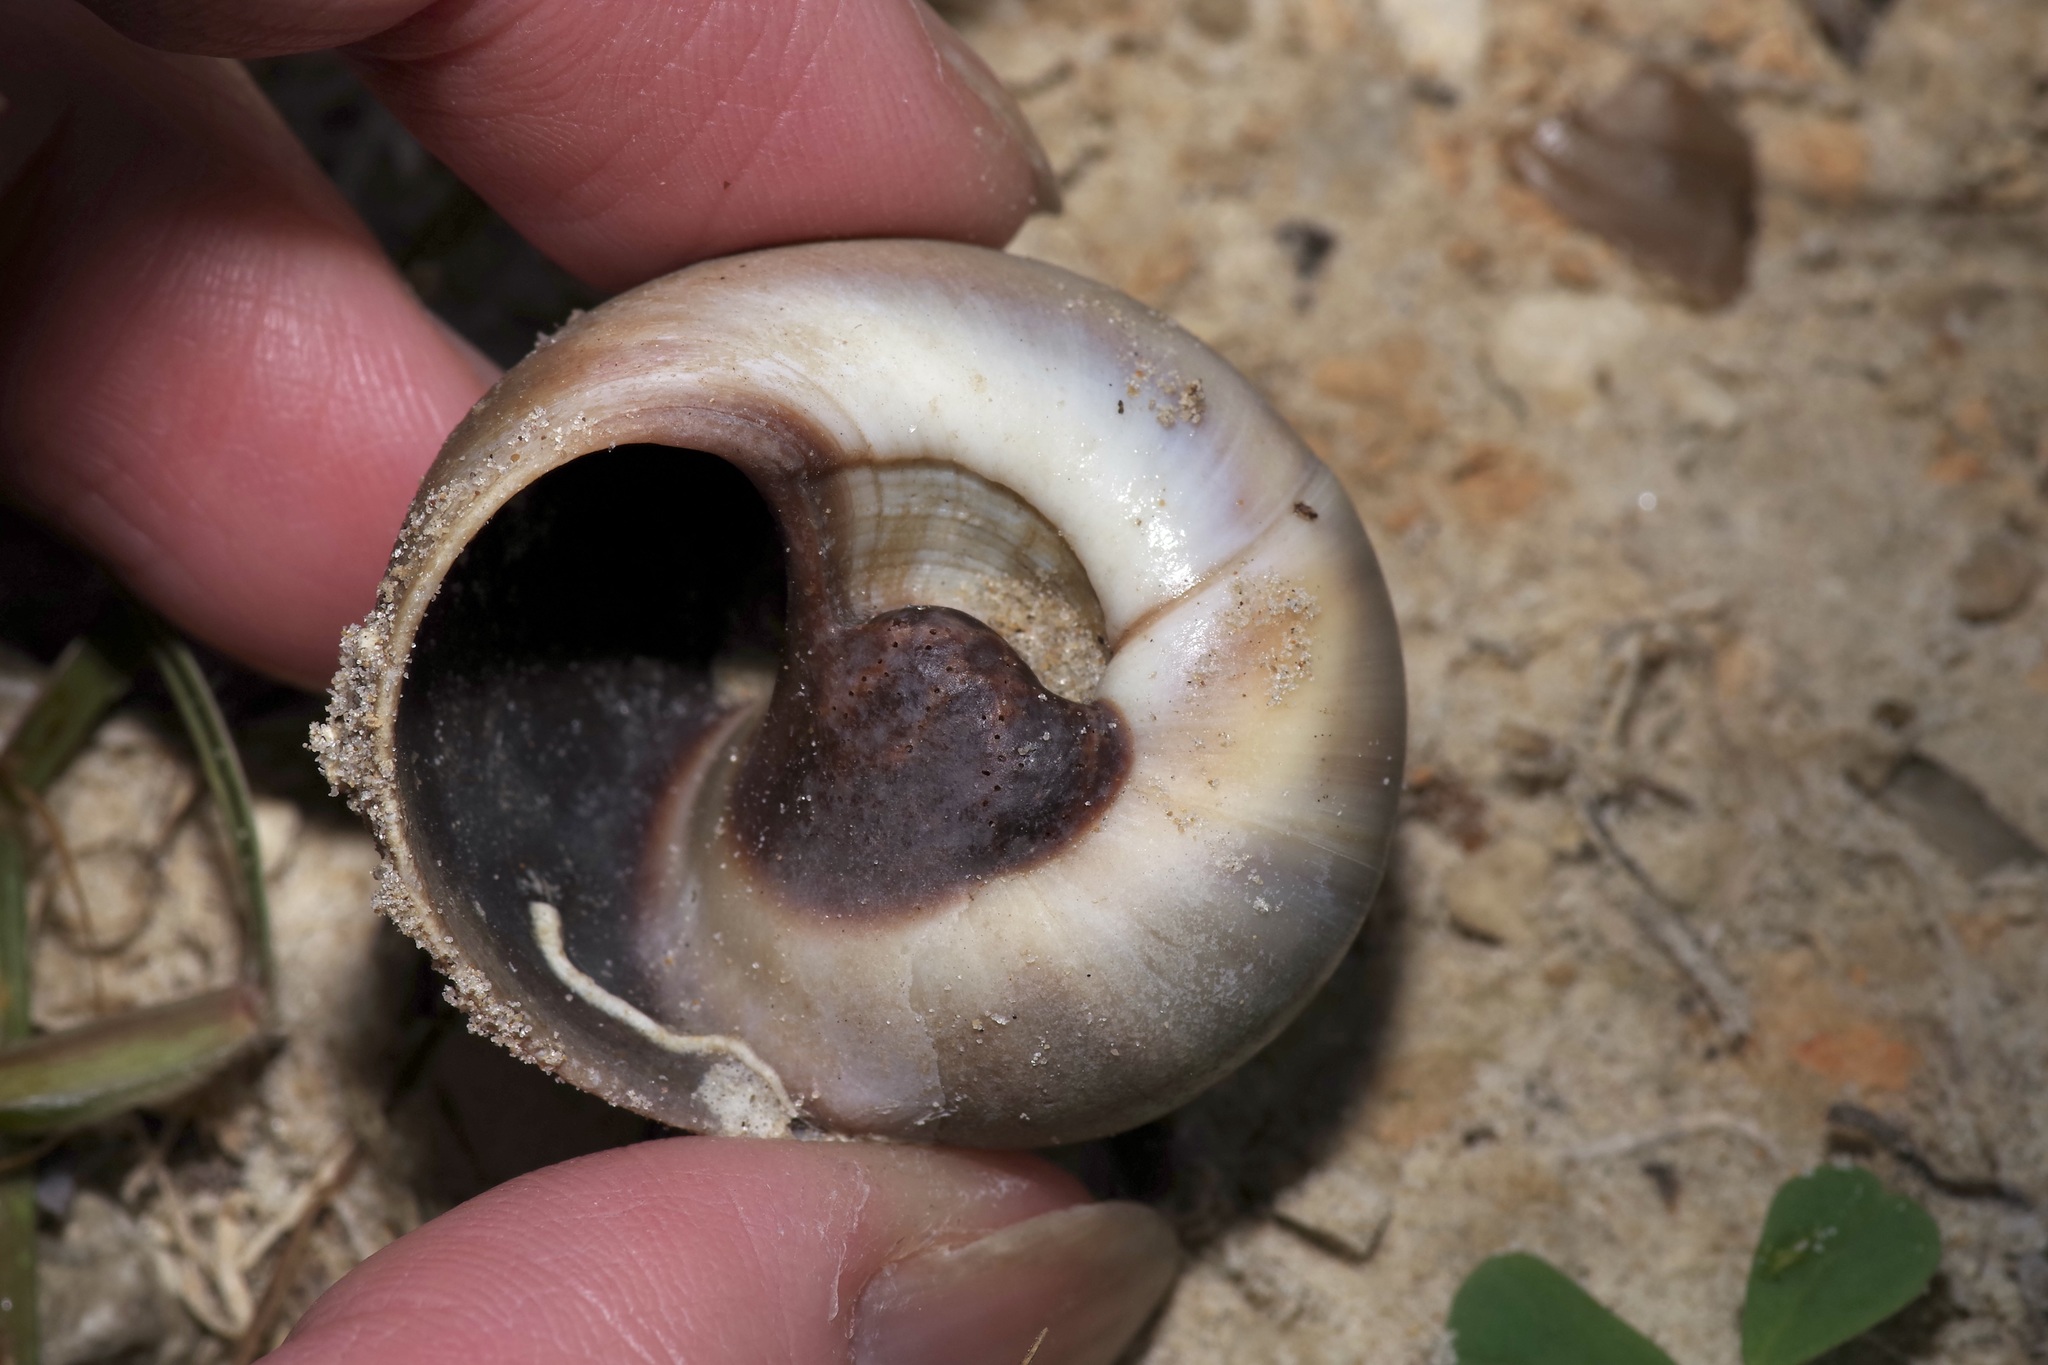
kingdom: Animalia
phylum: Mollusca
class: Gastropoda
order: Littorinimorpha
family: Naticidae
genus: Neverita
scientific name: Neverita delessertiana
